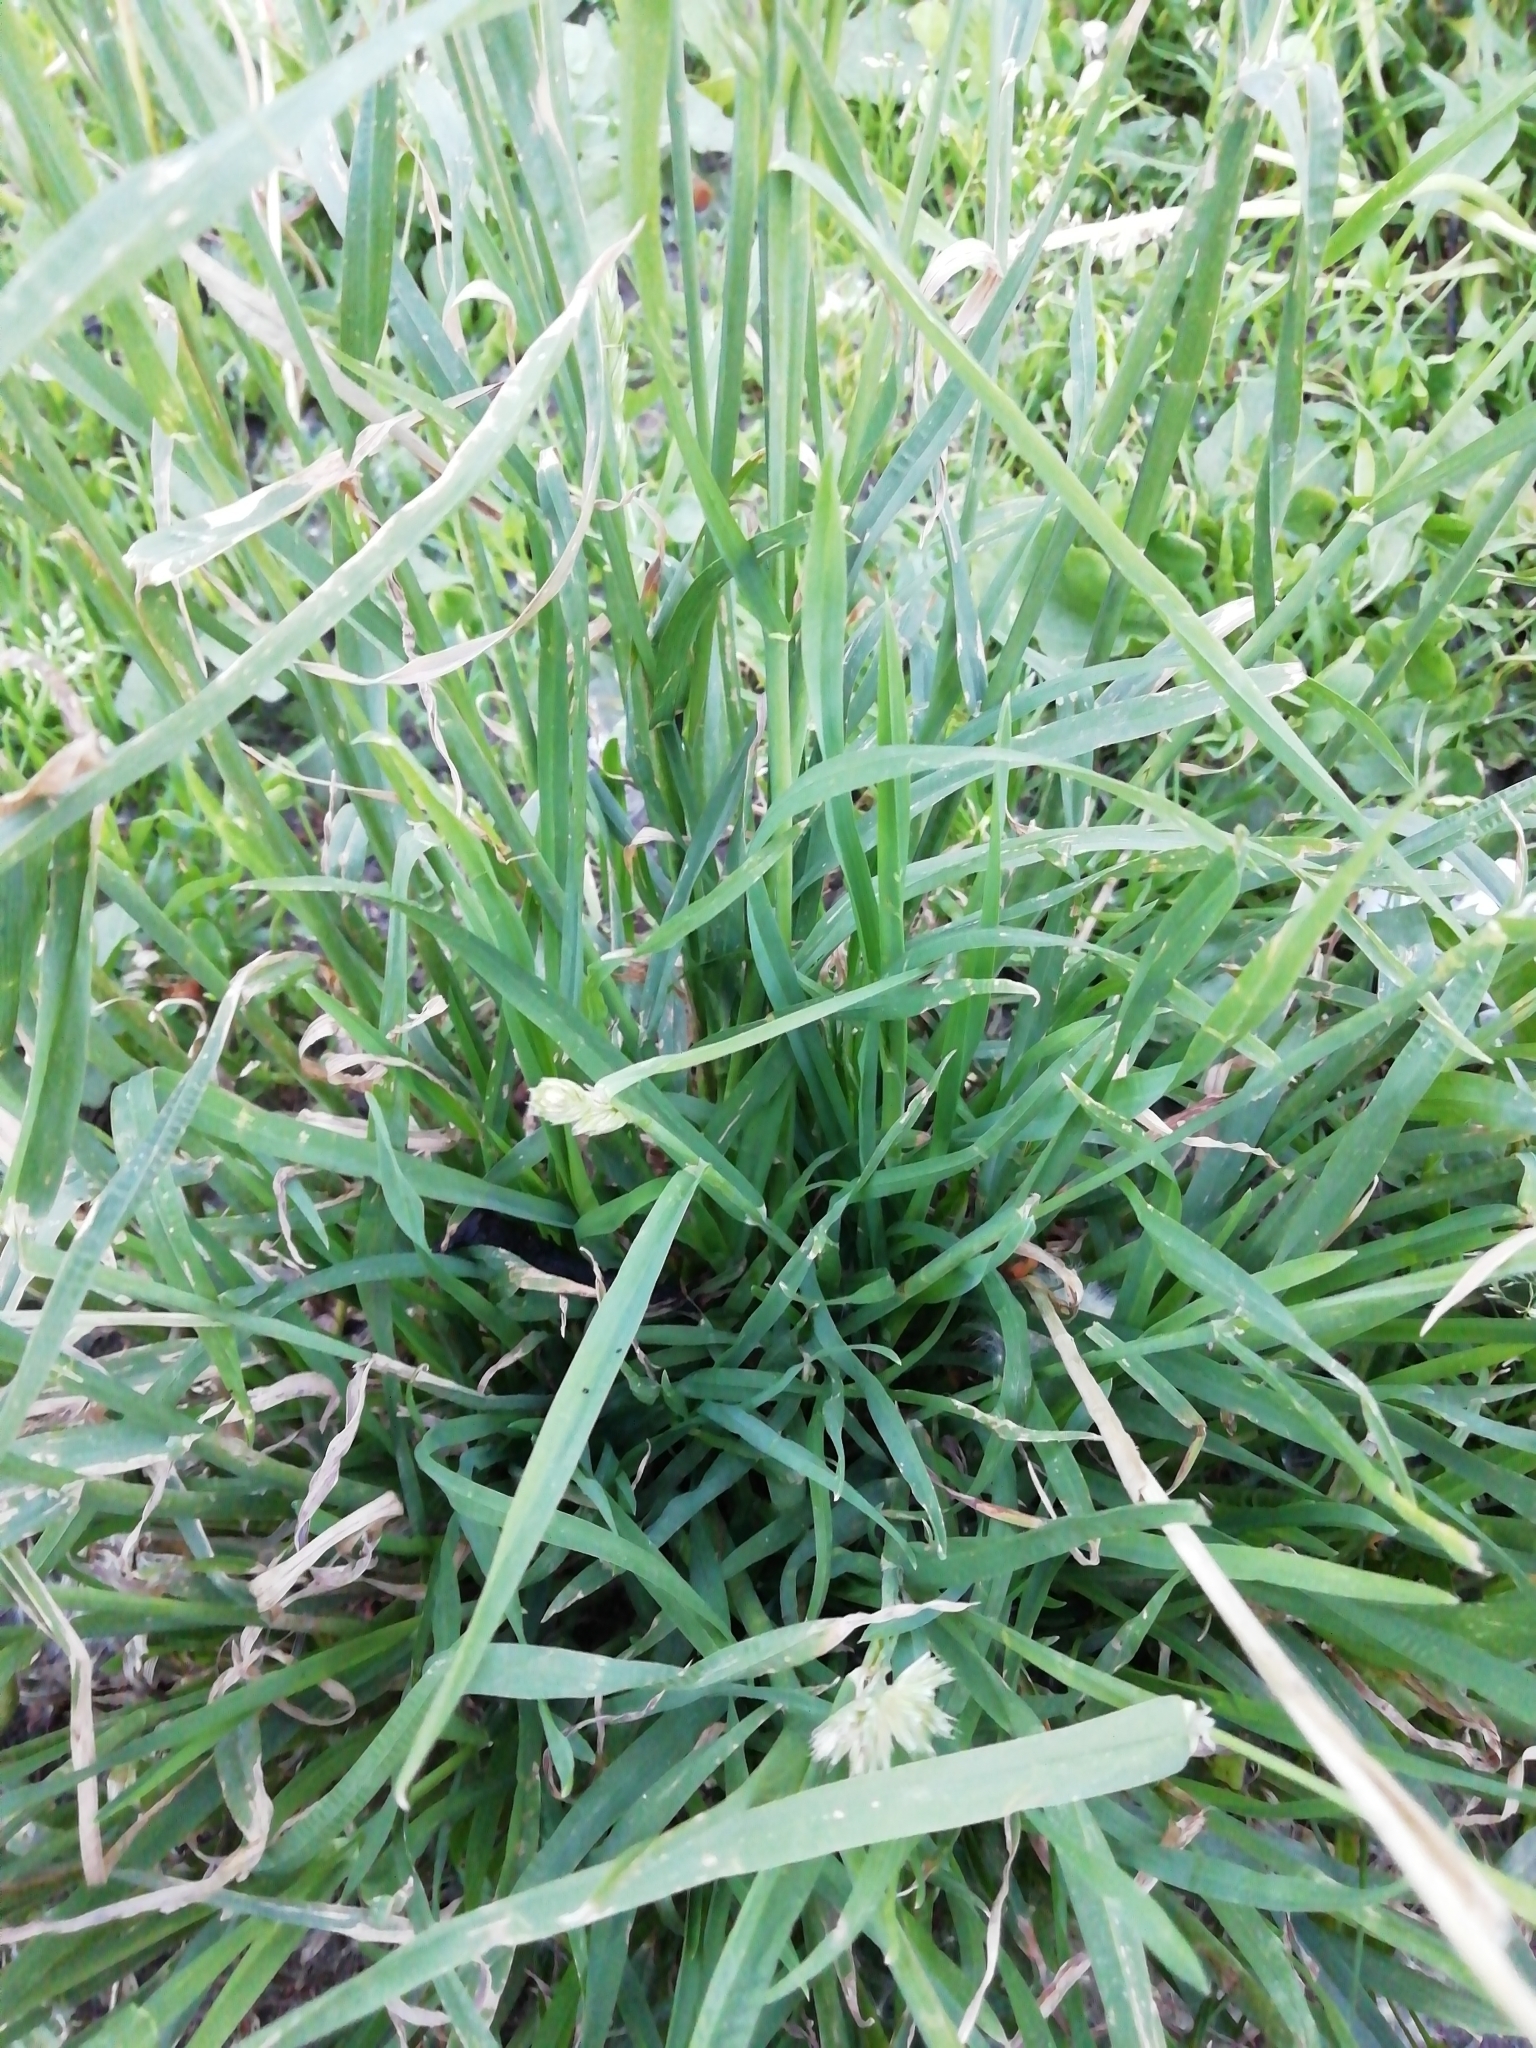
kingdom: Plantae
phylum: Tracheophyta
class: Liliopsida
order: Poales
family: Poaceae
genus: Dactylis
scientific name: Dactylis glomerata
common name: Orchardgrass
